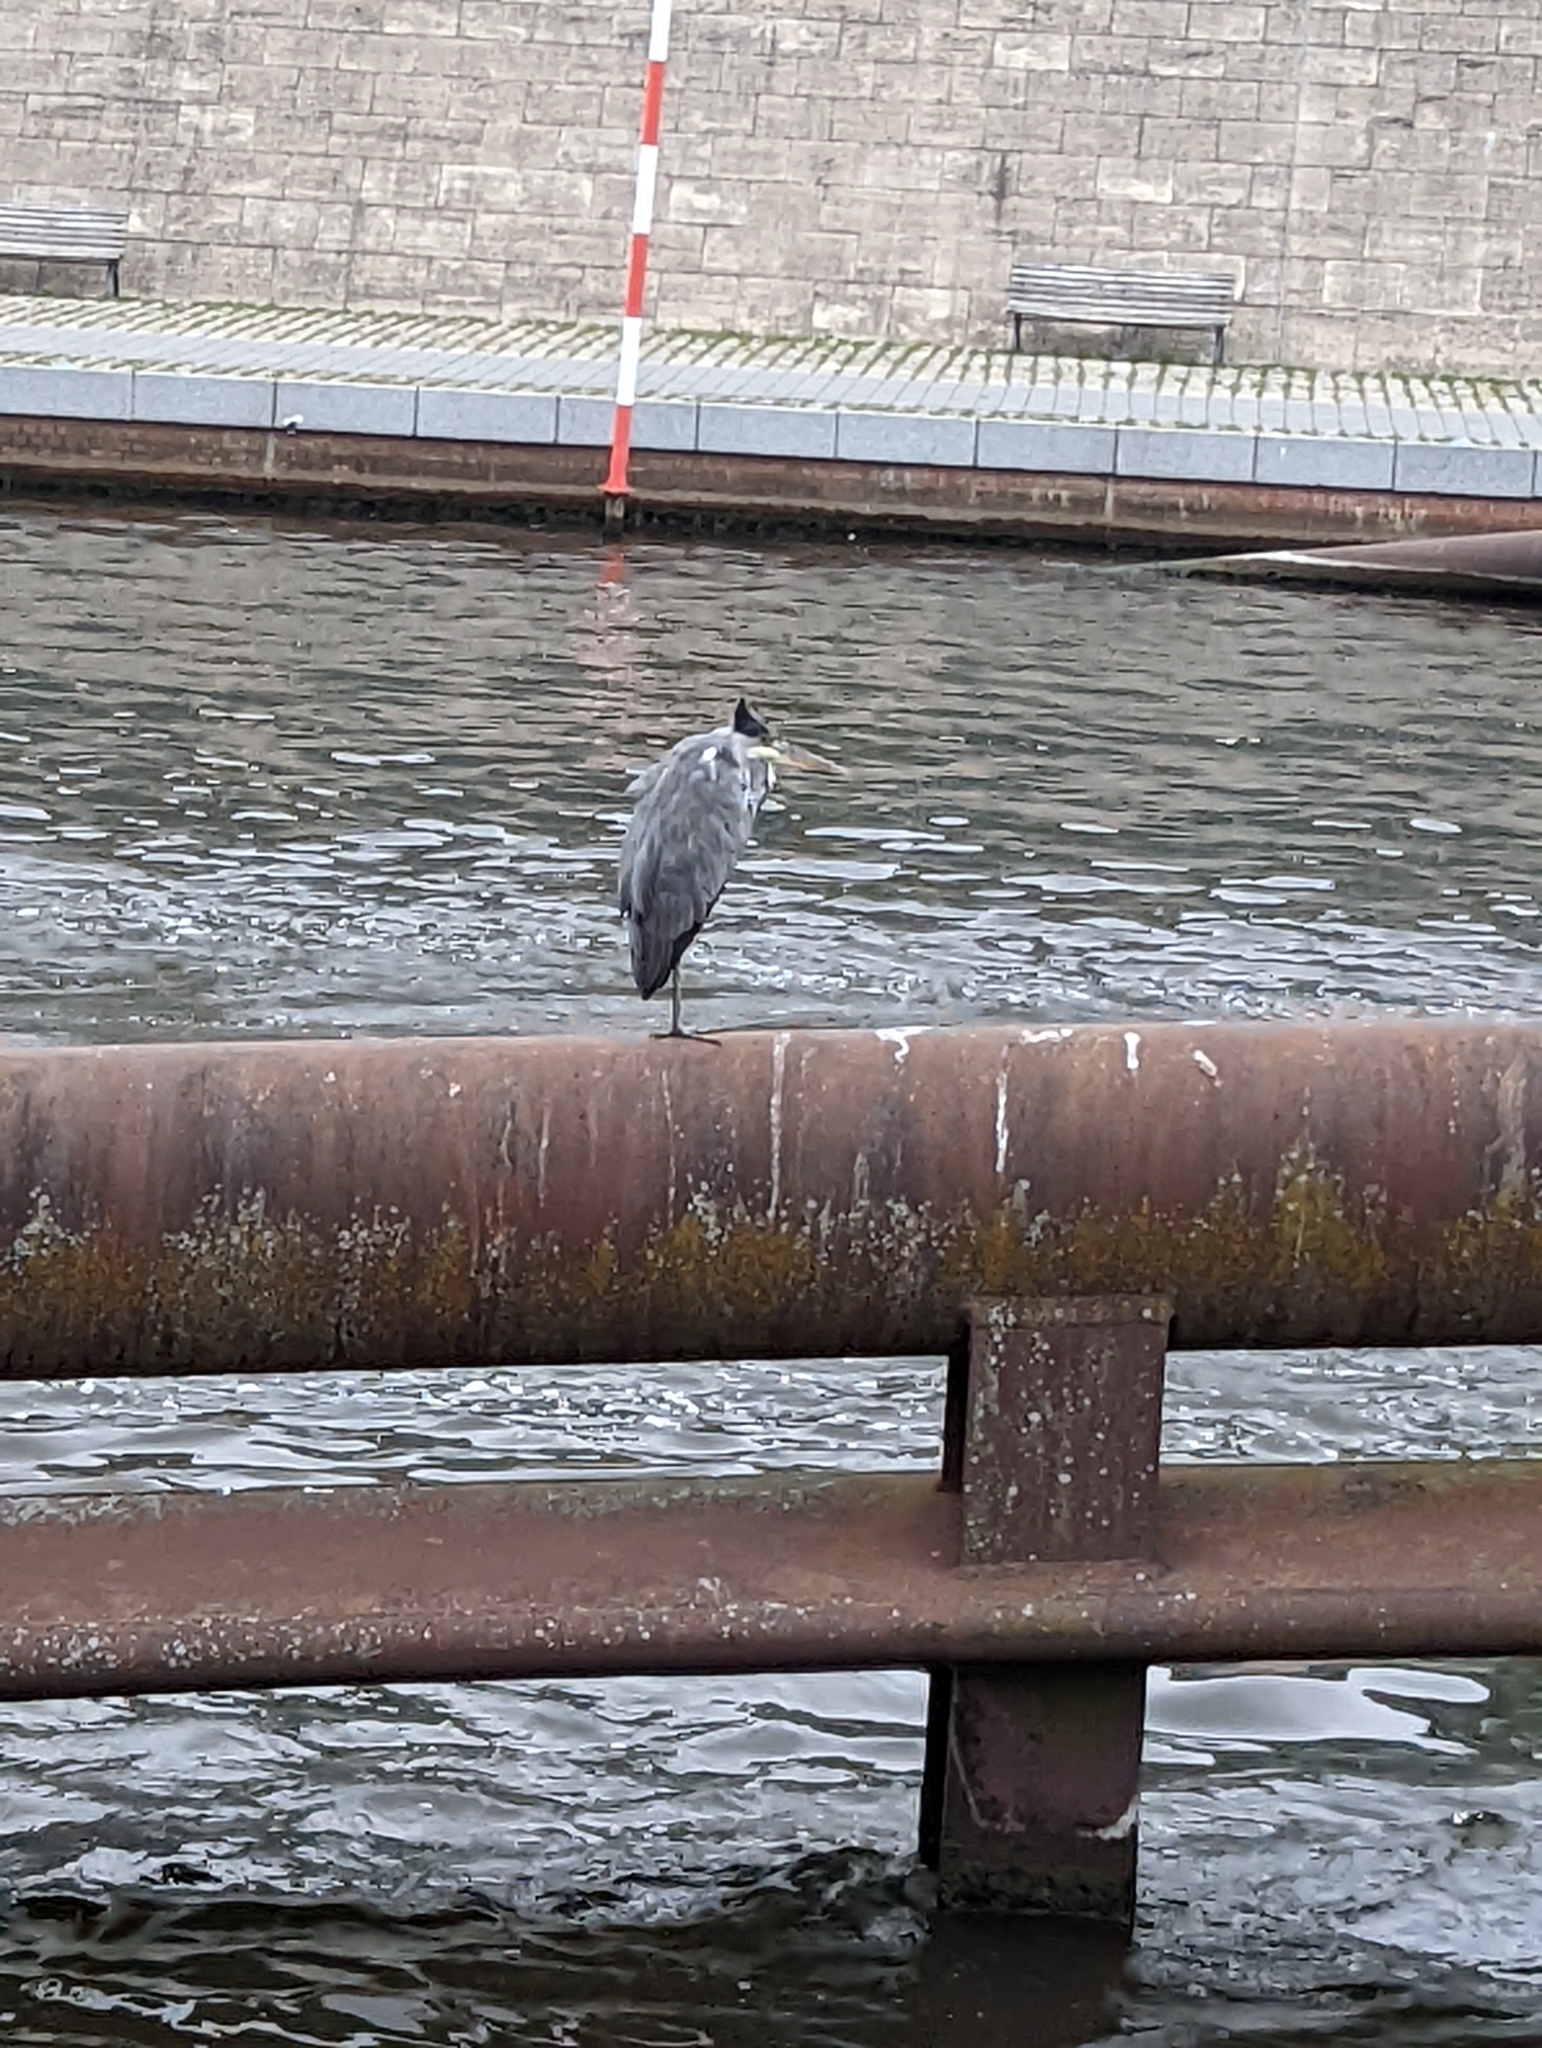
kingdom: Animalia
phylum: Chordata
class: Aves
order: Pelecaniformes
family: Ardeidae
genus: Ardea
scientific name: Ardea cinerea
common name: Grey heron
